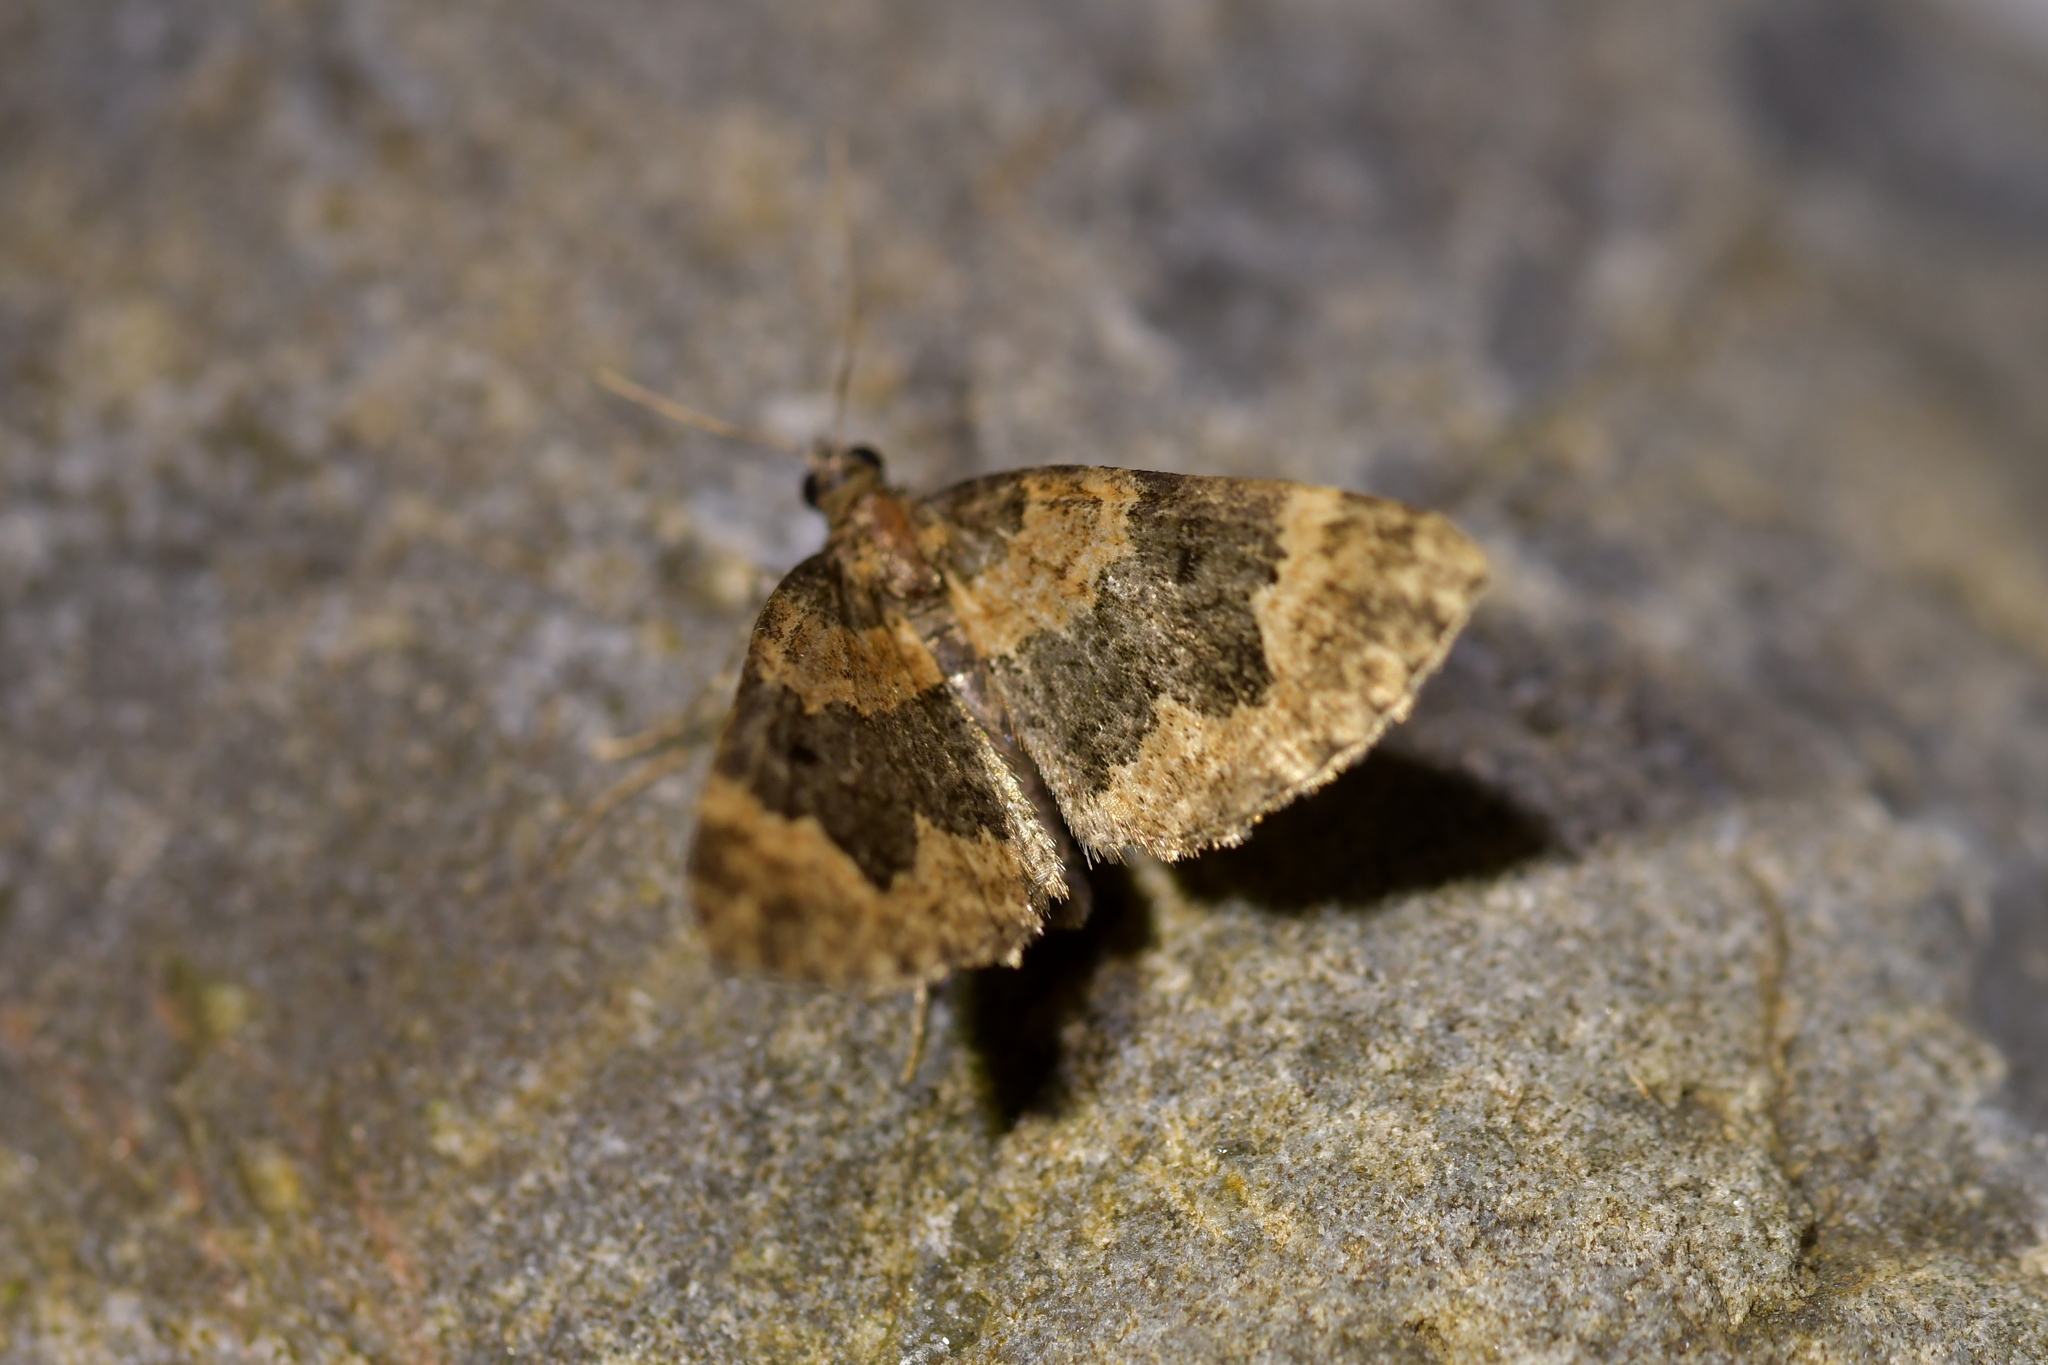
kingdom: Animalia
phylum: Arthropoda
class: Insecta
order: Lepidoptera
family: Geometridae
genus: Hydriomena
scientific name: Hydriomena deltoidata
